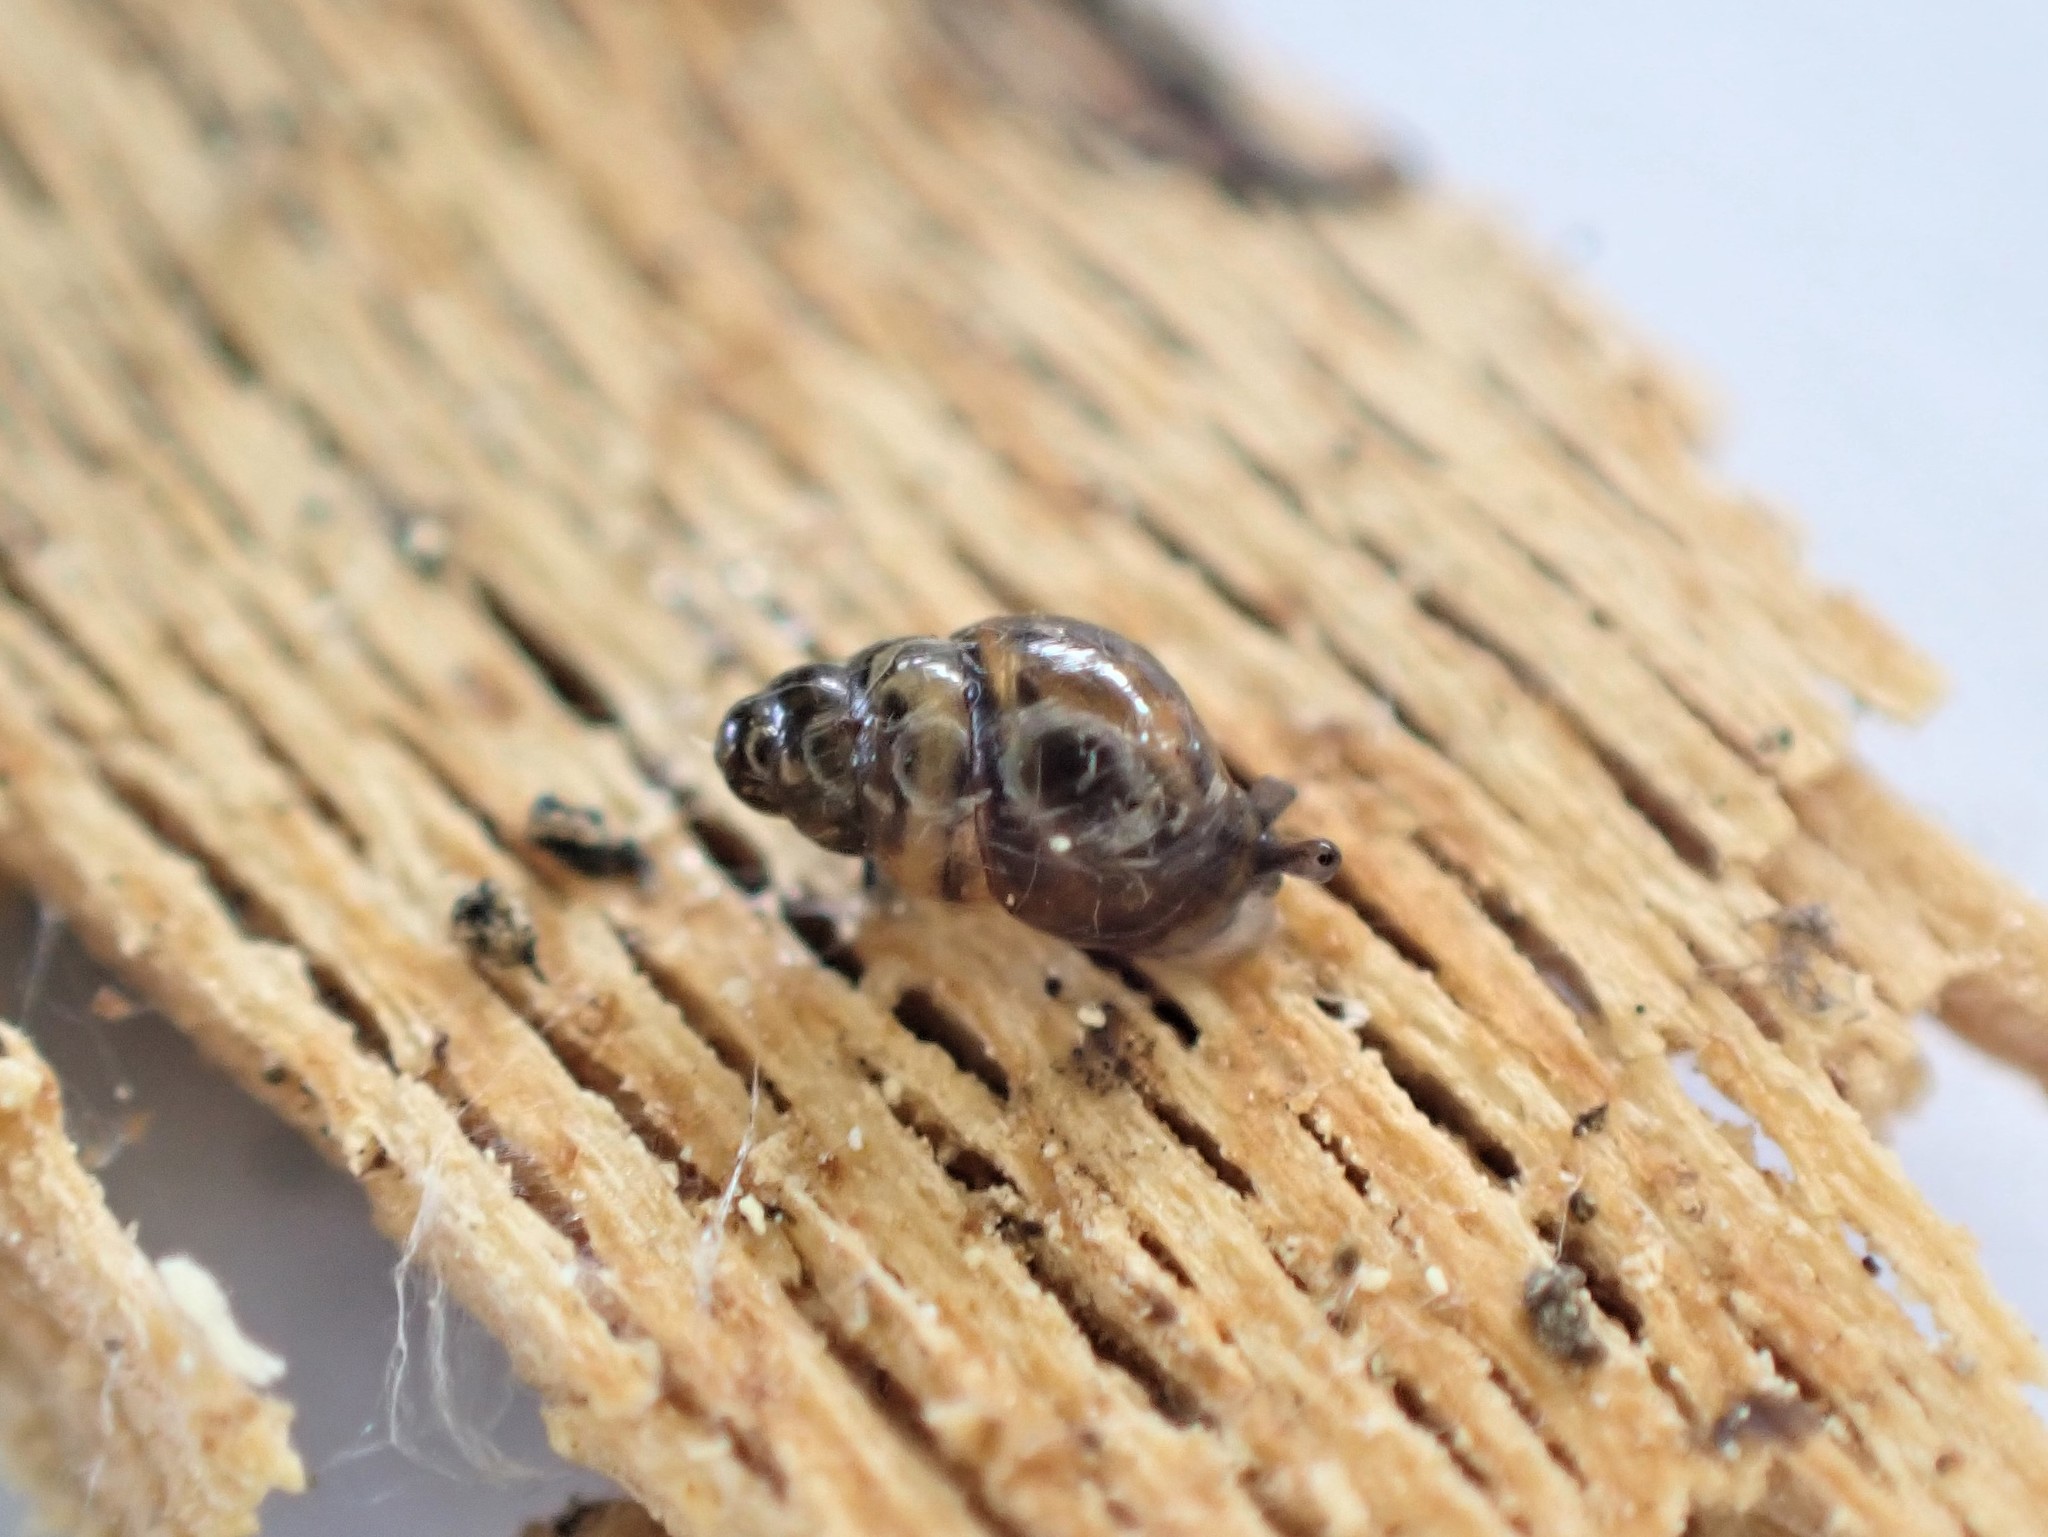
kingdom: Animalia
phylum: Mollusca
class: Gastropoda
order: Stylommatophora
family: Achatinellidae
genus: Tornatellinops
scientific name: Tornatellinops novoseelandicus
